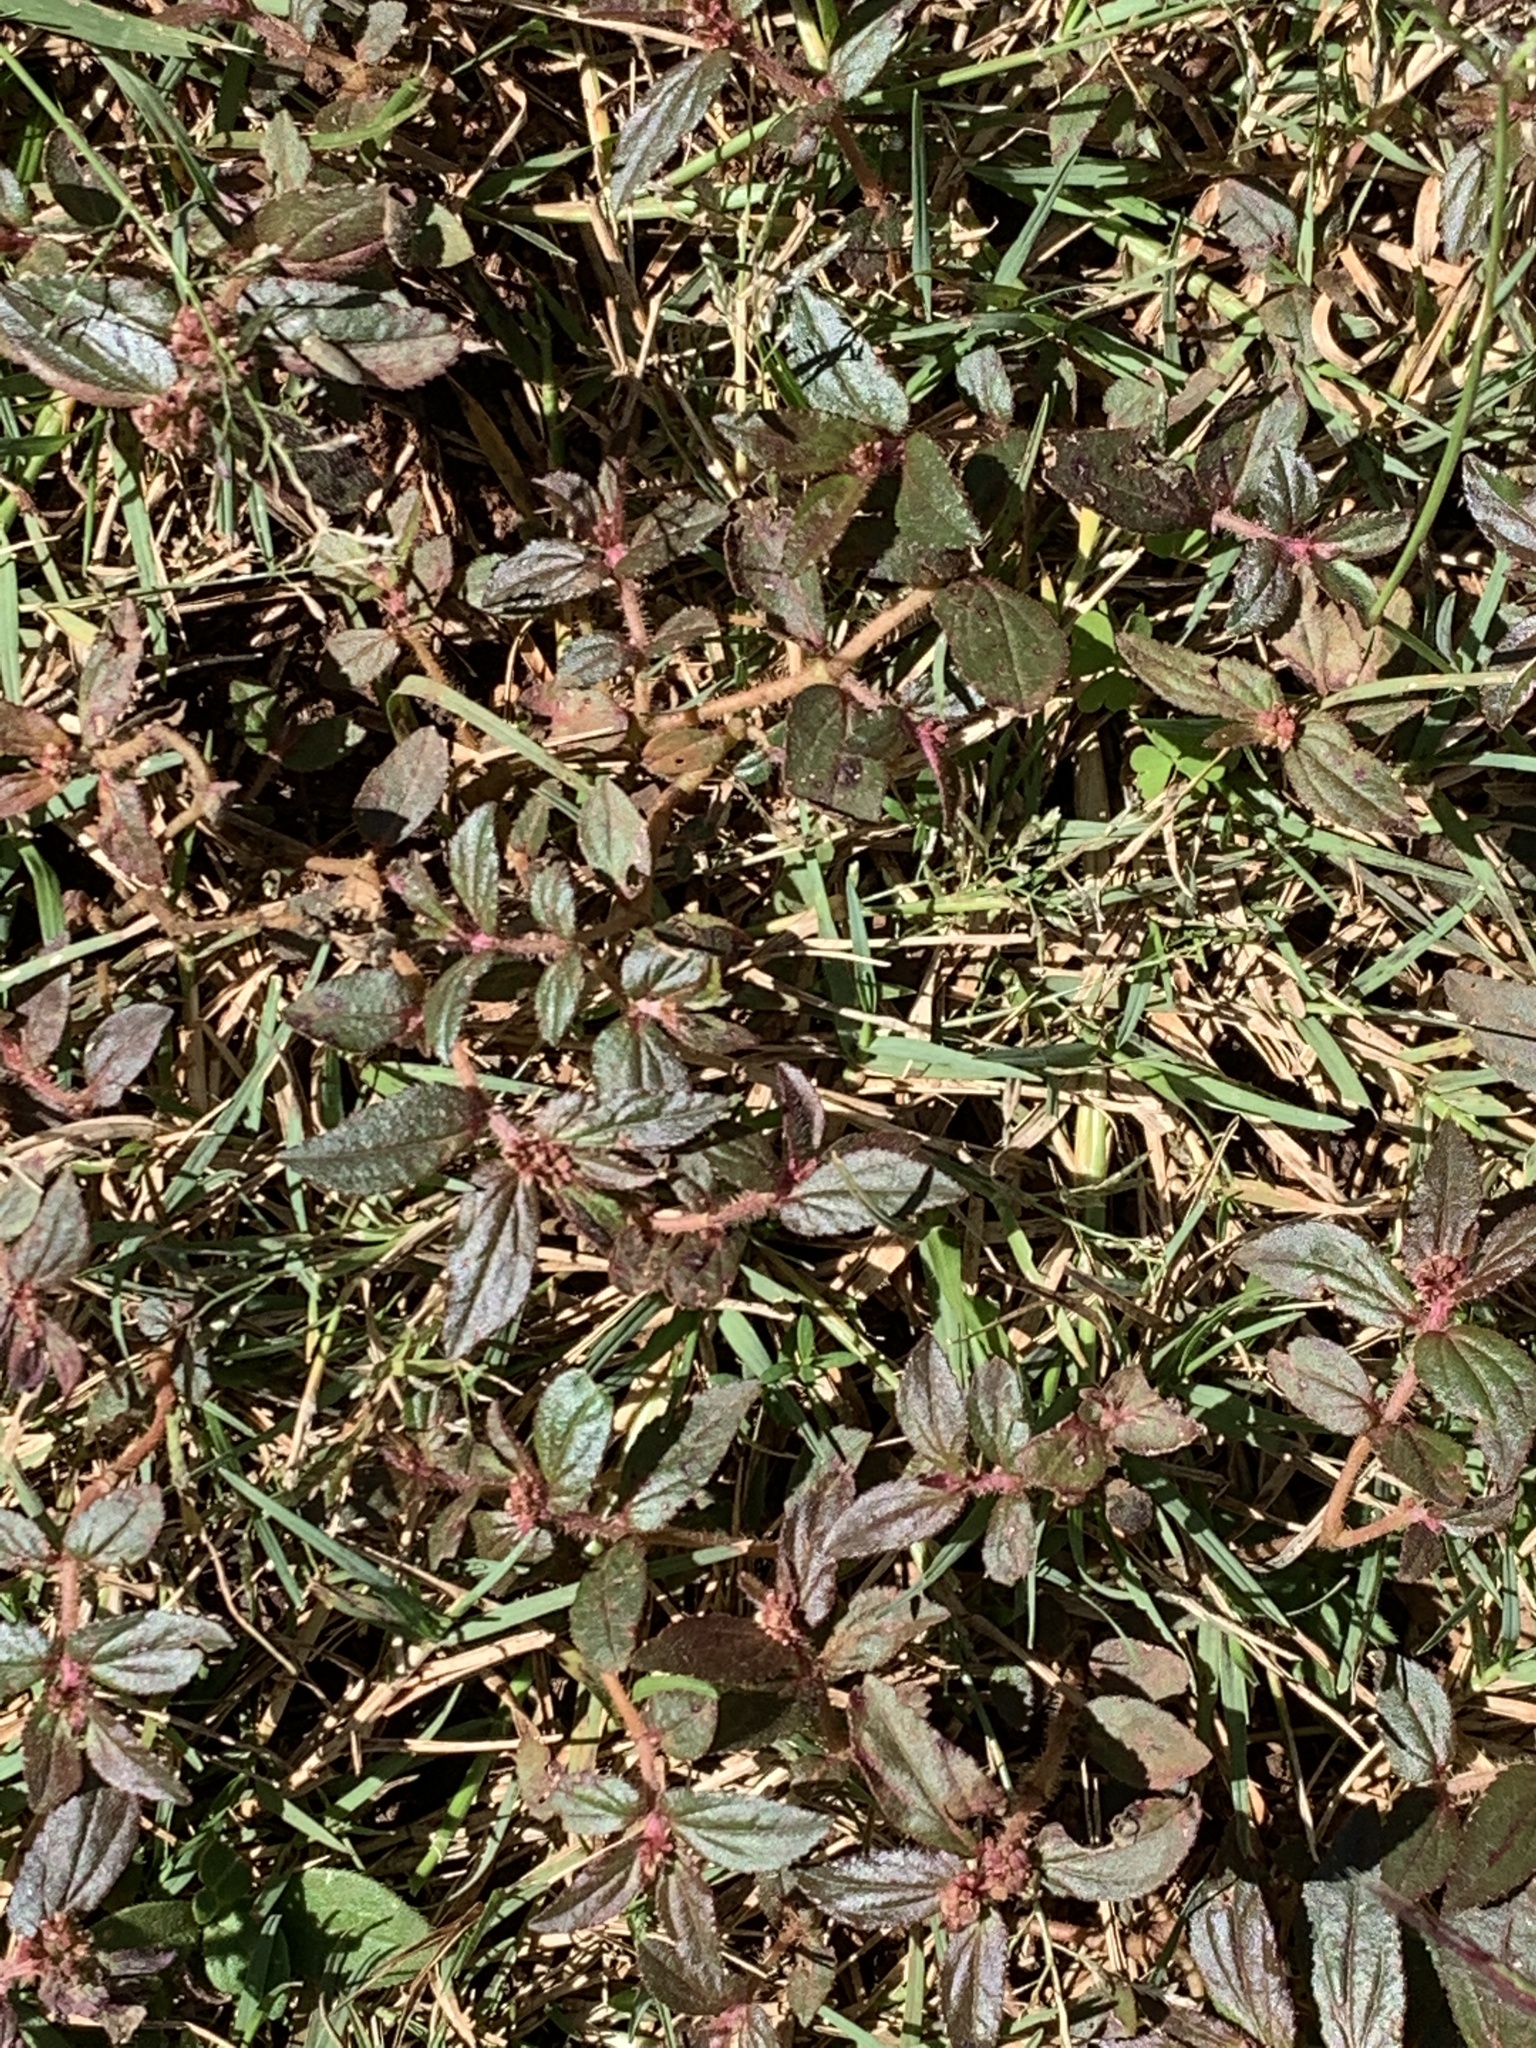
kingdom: Plantae
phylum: Tracheophyta
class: Magnoliopsida
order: Malpighiales
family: Euphorbiaceae
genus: Euphorbia
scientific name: Euphorbia hirta
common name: Pillpod sandmat
